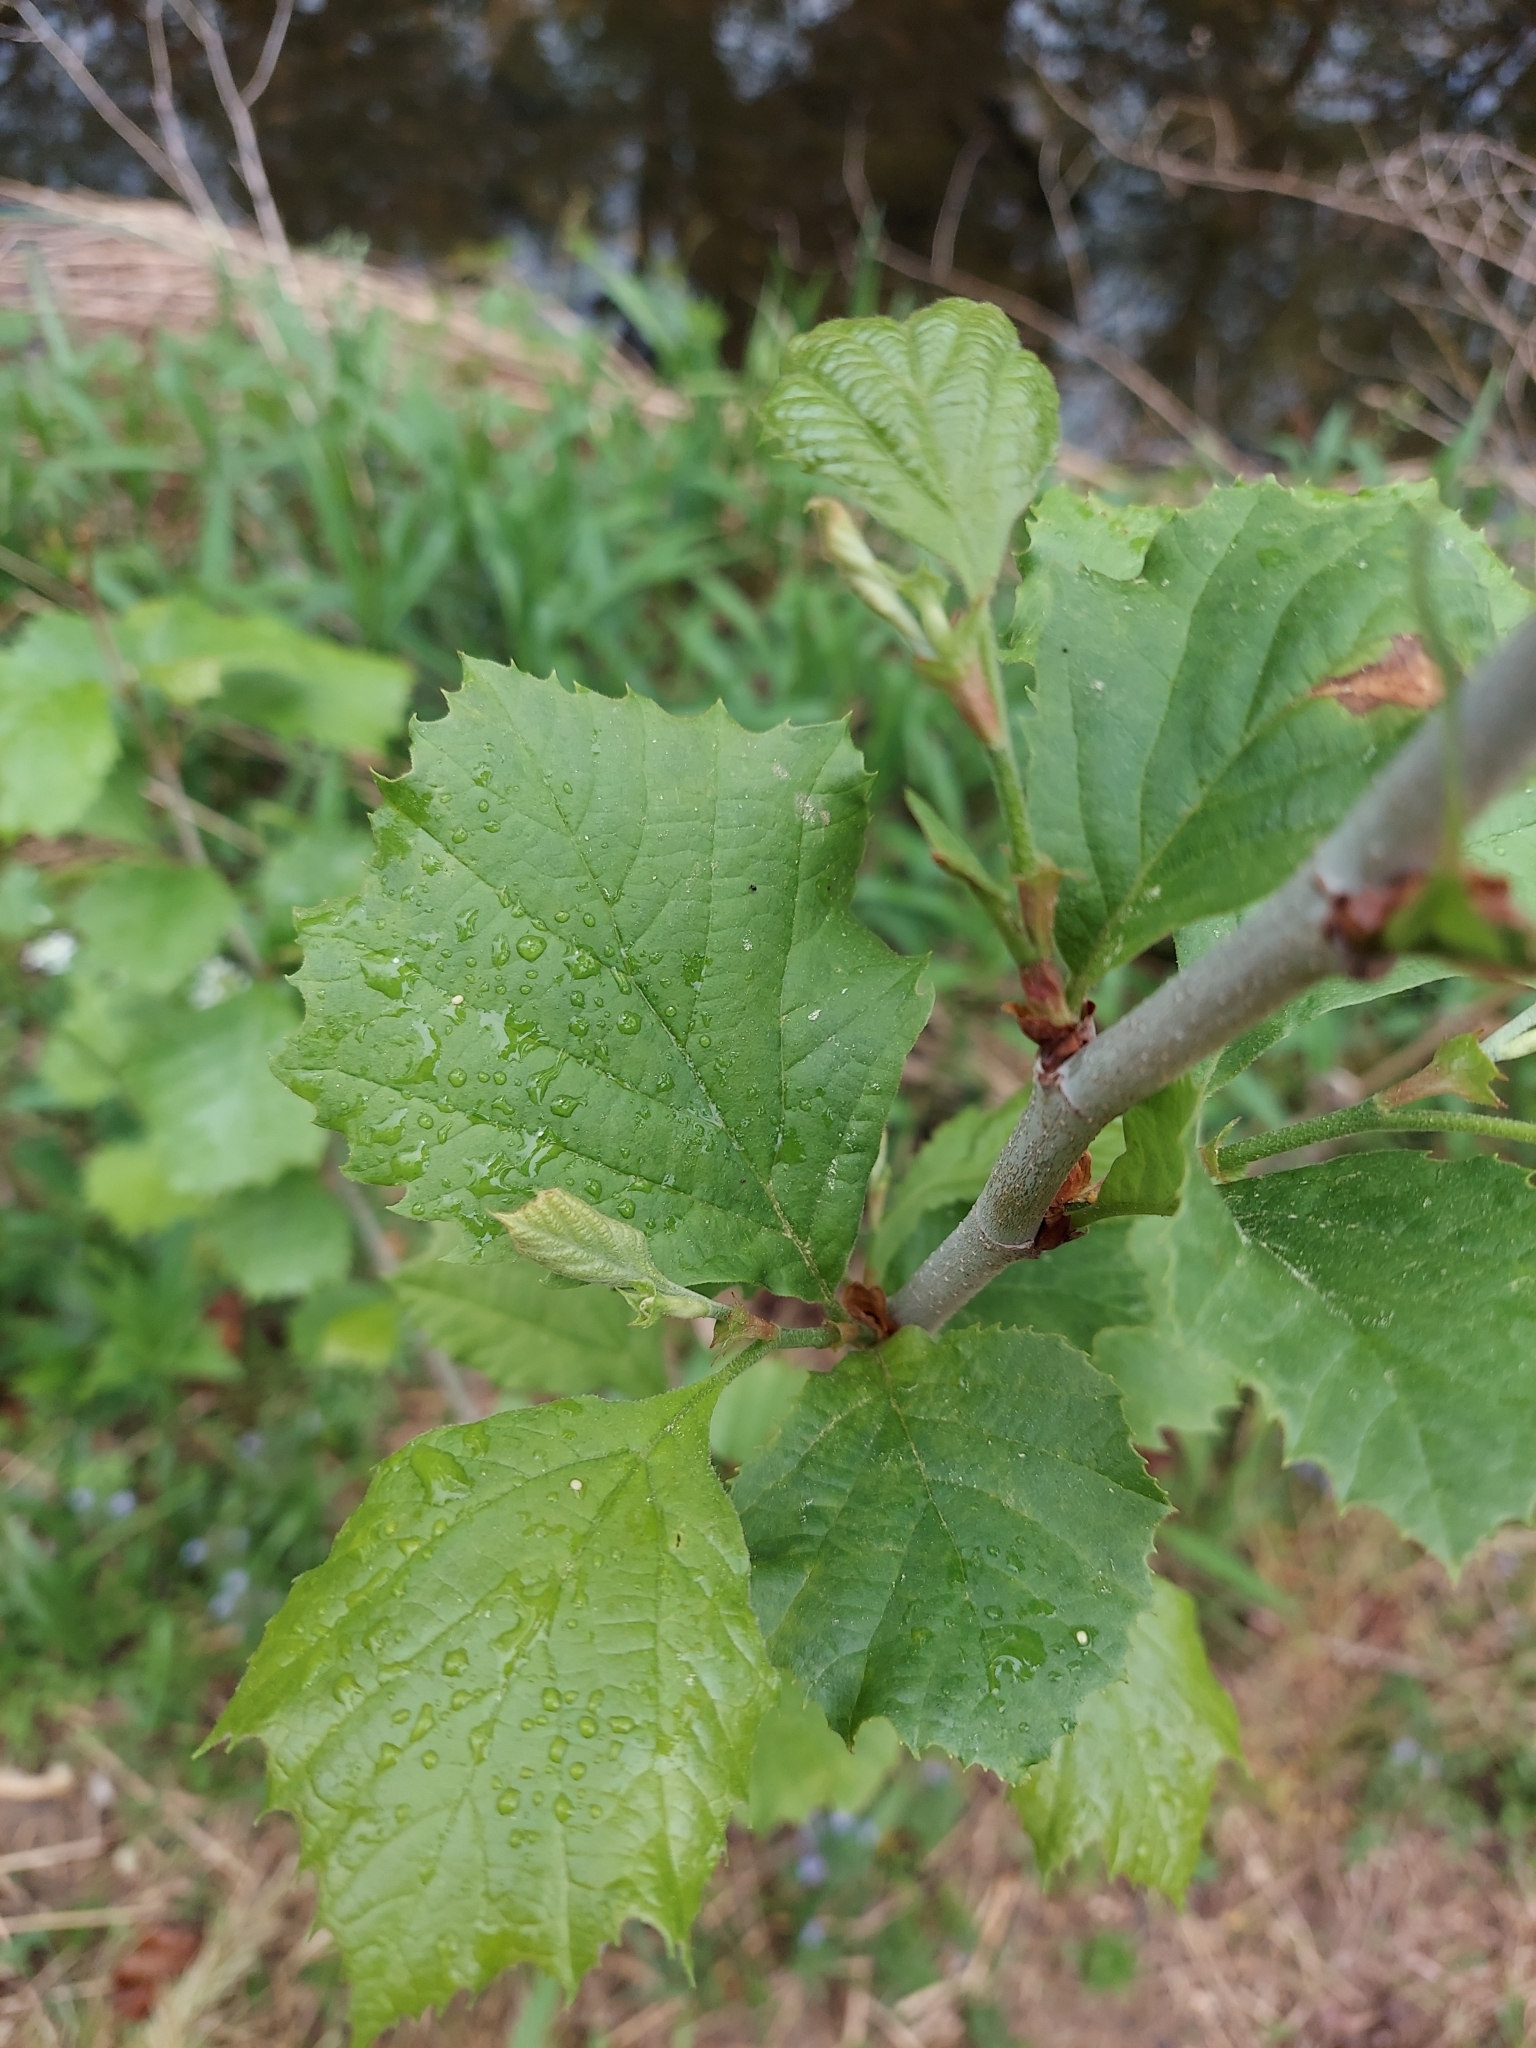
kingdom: Plantae
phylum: Tracheophyta
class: Magnoliopsida
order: Proteales
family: Platanaceae
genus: Platanus
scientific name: Platanus occidentalis
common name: American sycamore
